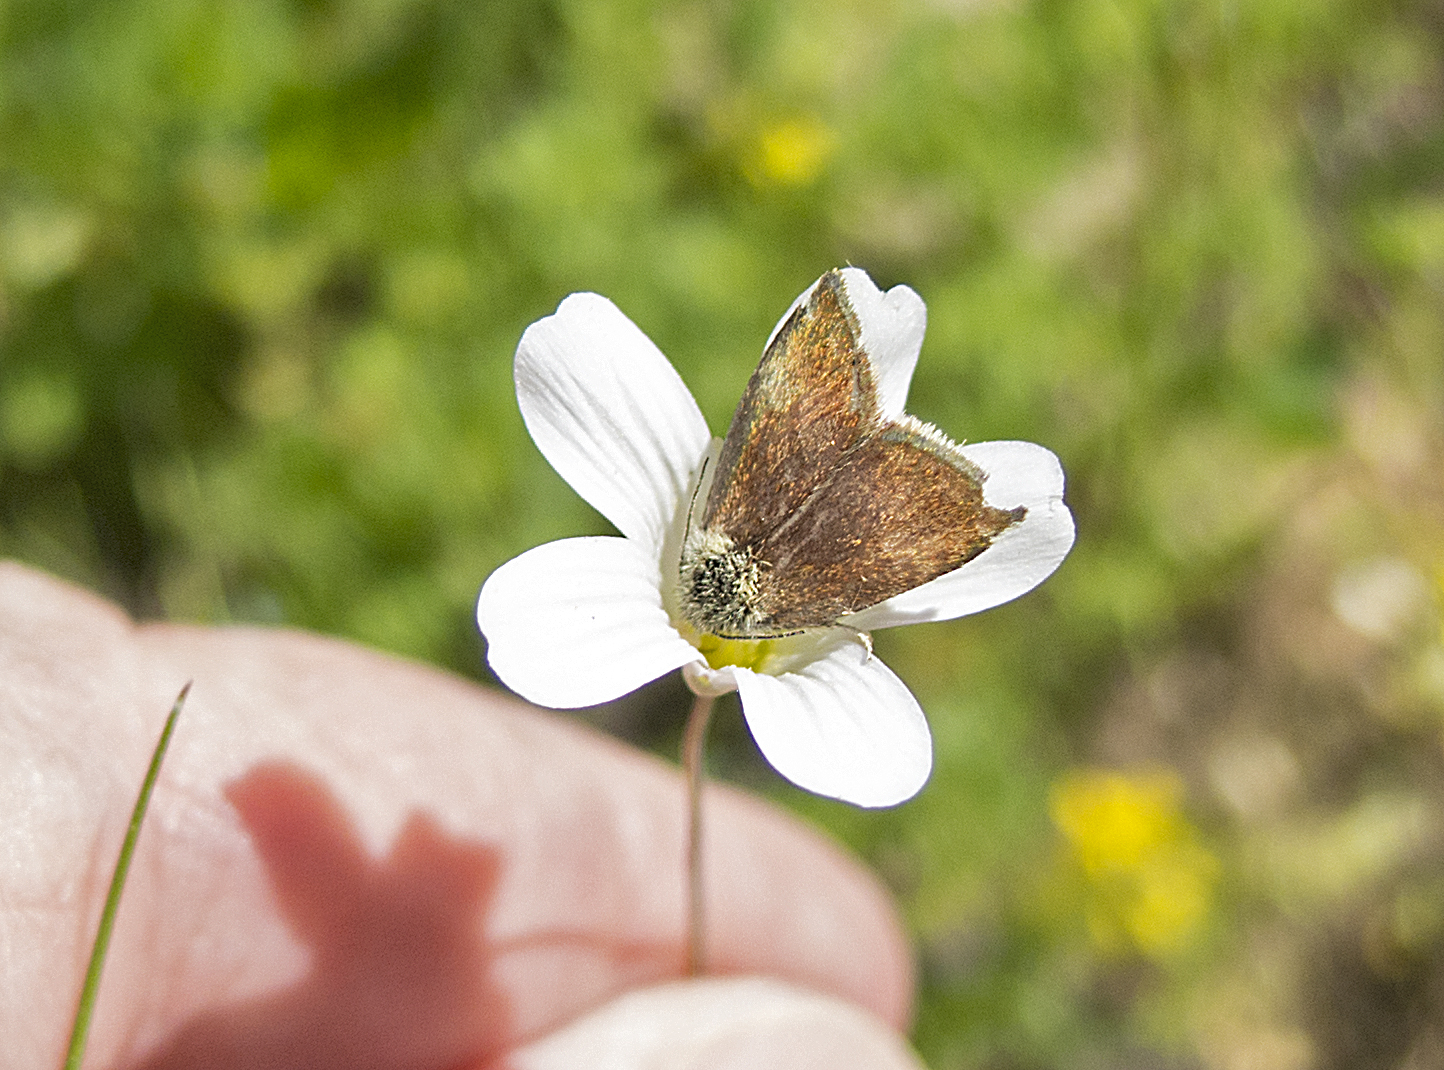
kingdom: Animalia
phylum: Arthropoda
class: Insecta
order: Lepidoptera
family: Noctuidae
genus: Panemeria
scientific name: Panemeria tenebrata
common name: Small yellow underwing
